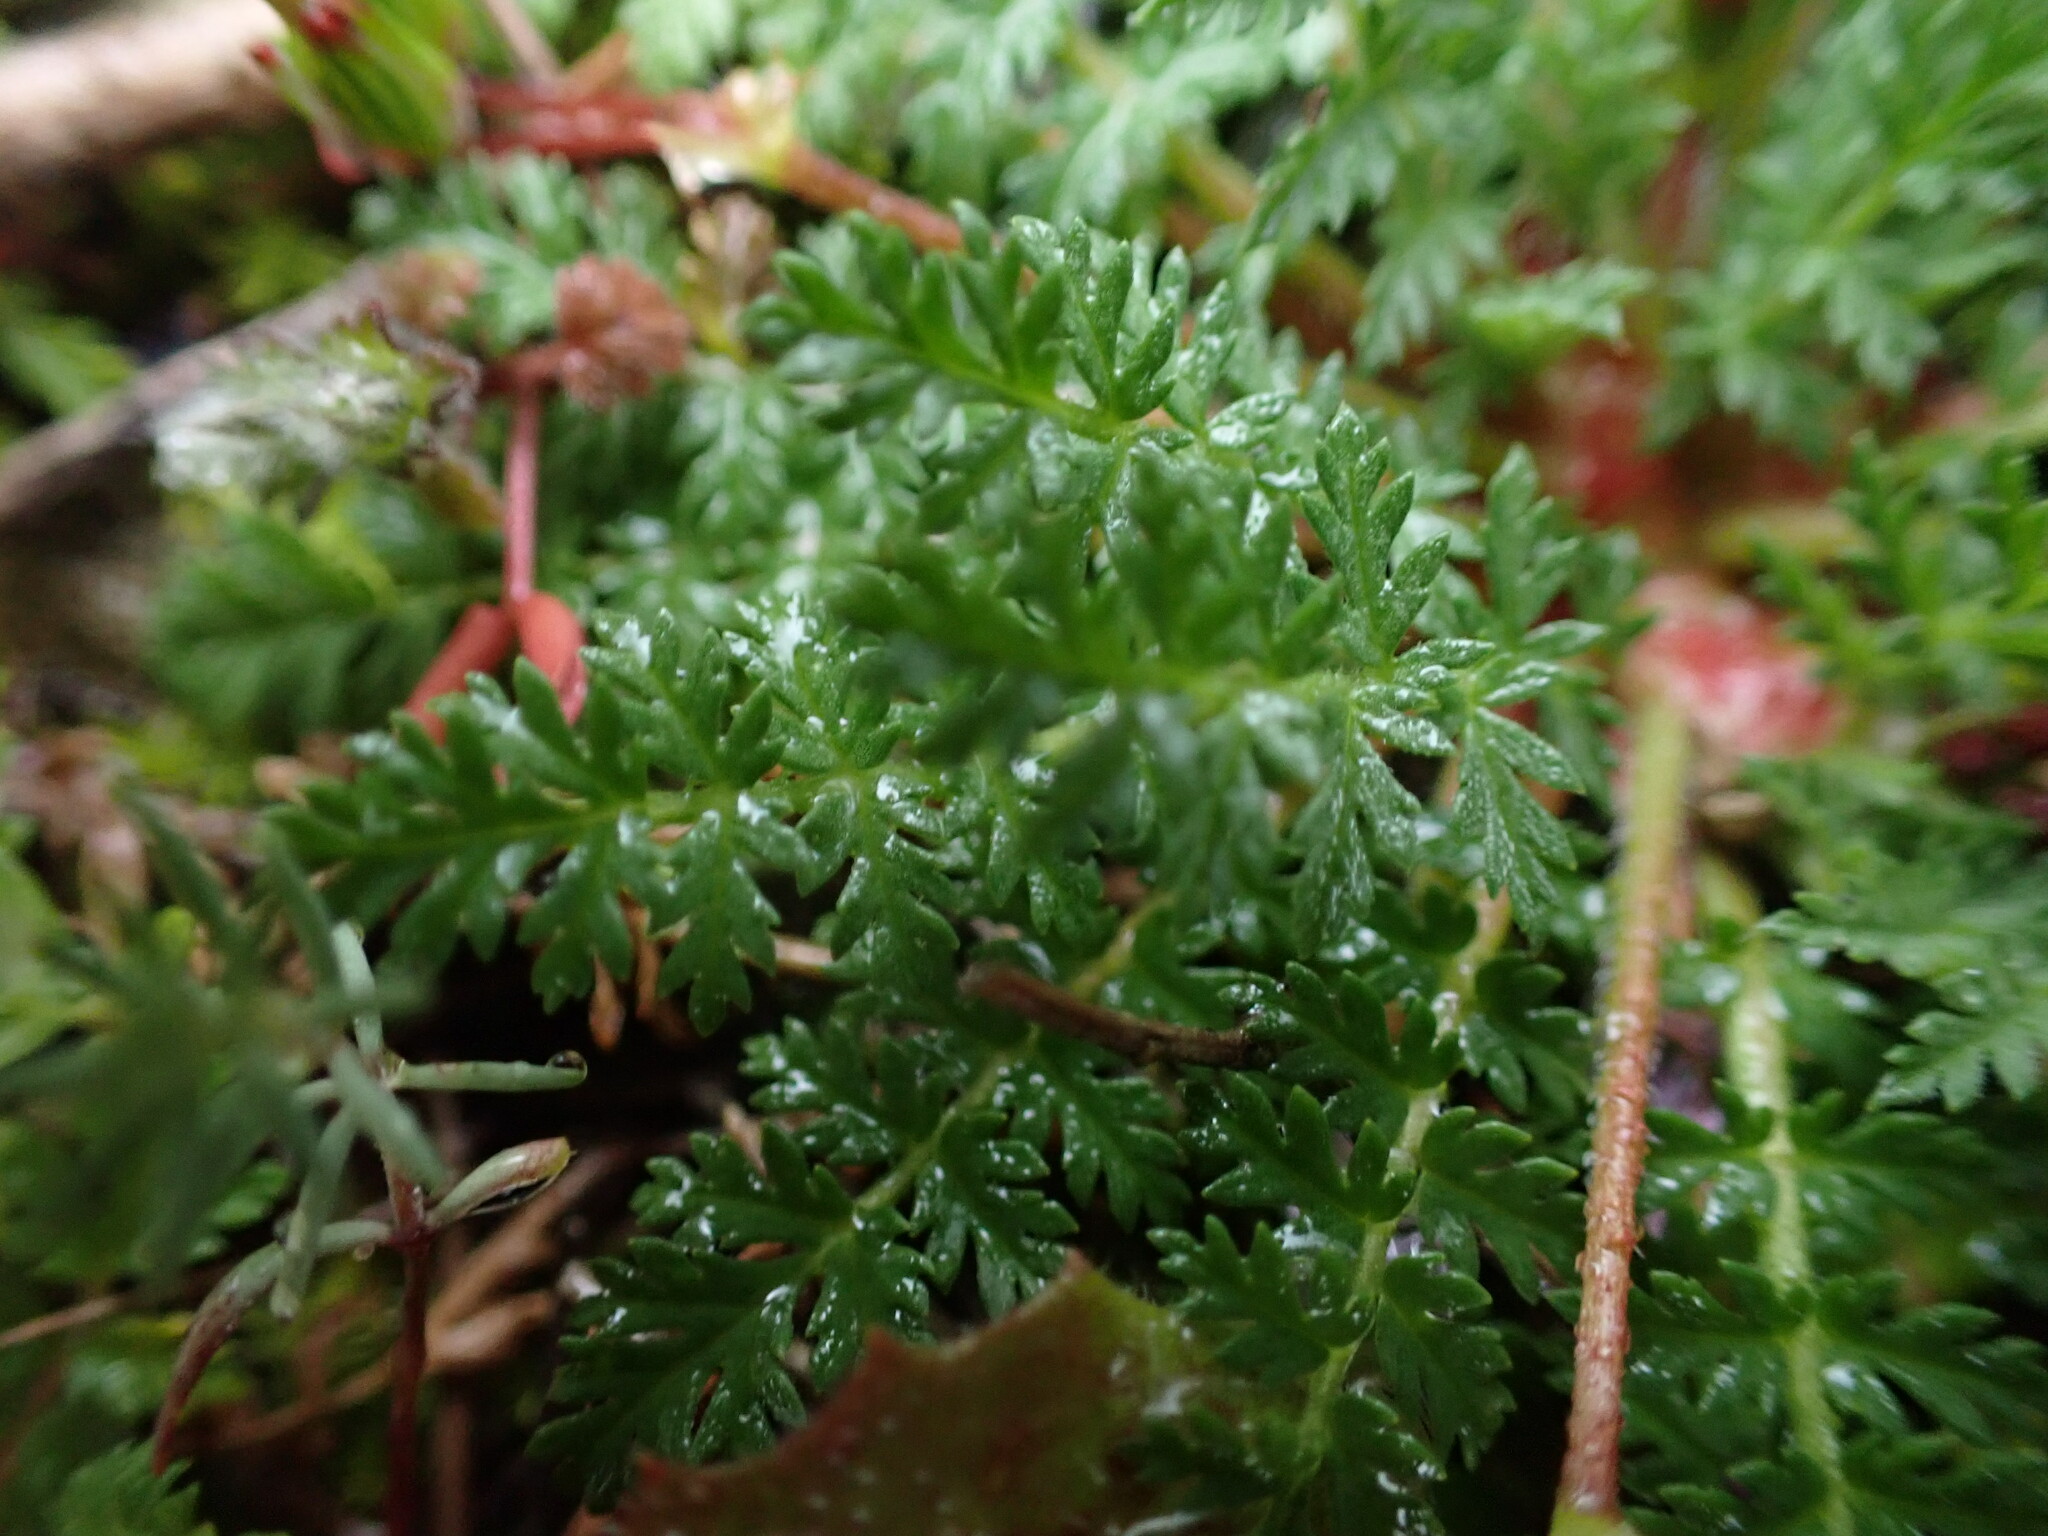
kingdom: Plantae
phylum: Tracheophyta
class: Magnoliopsida
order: Geraniales
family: Geraniaceae
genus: Erodium
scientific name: Erodium cicutarium
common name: Common stork's-bill
